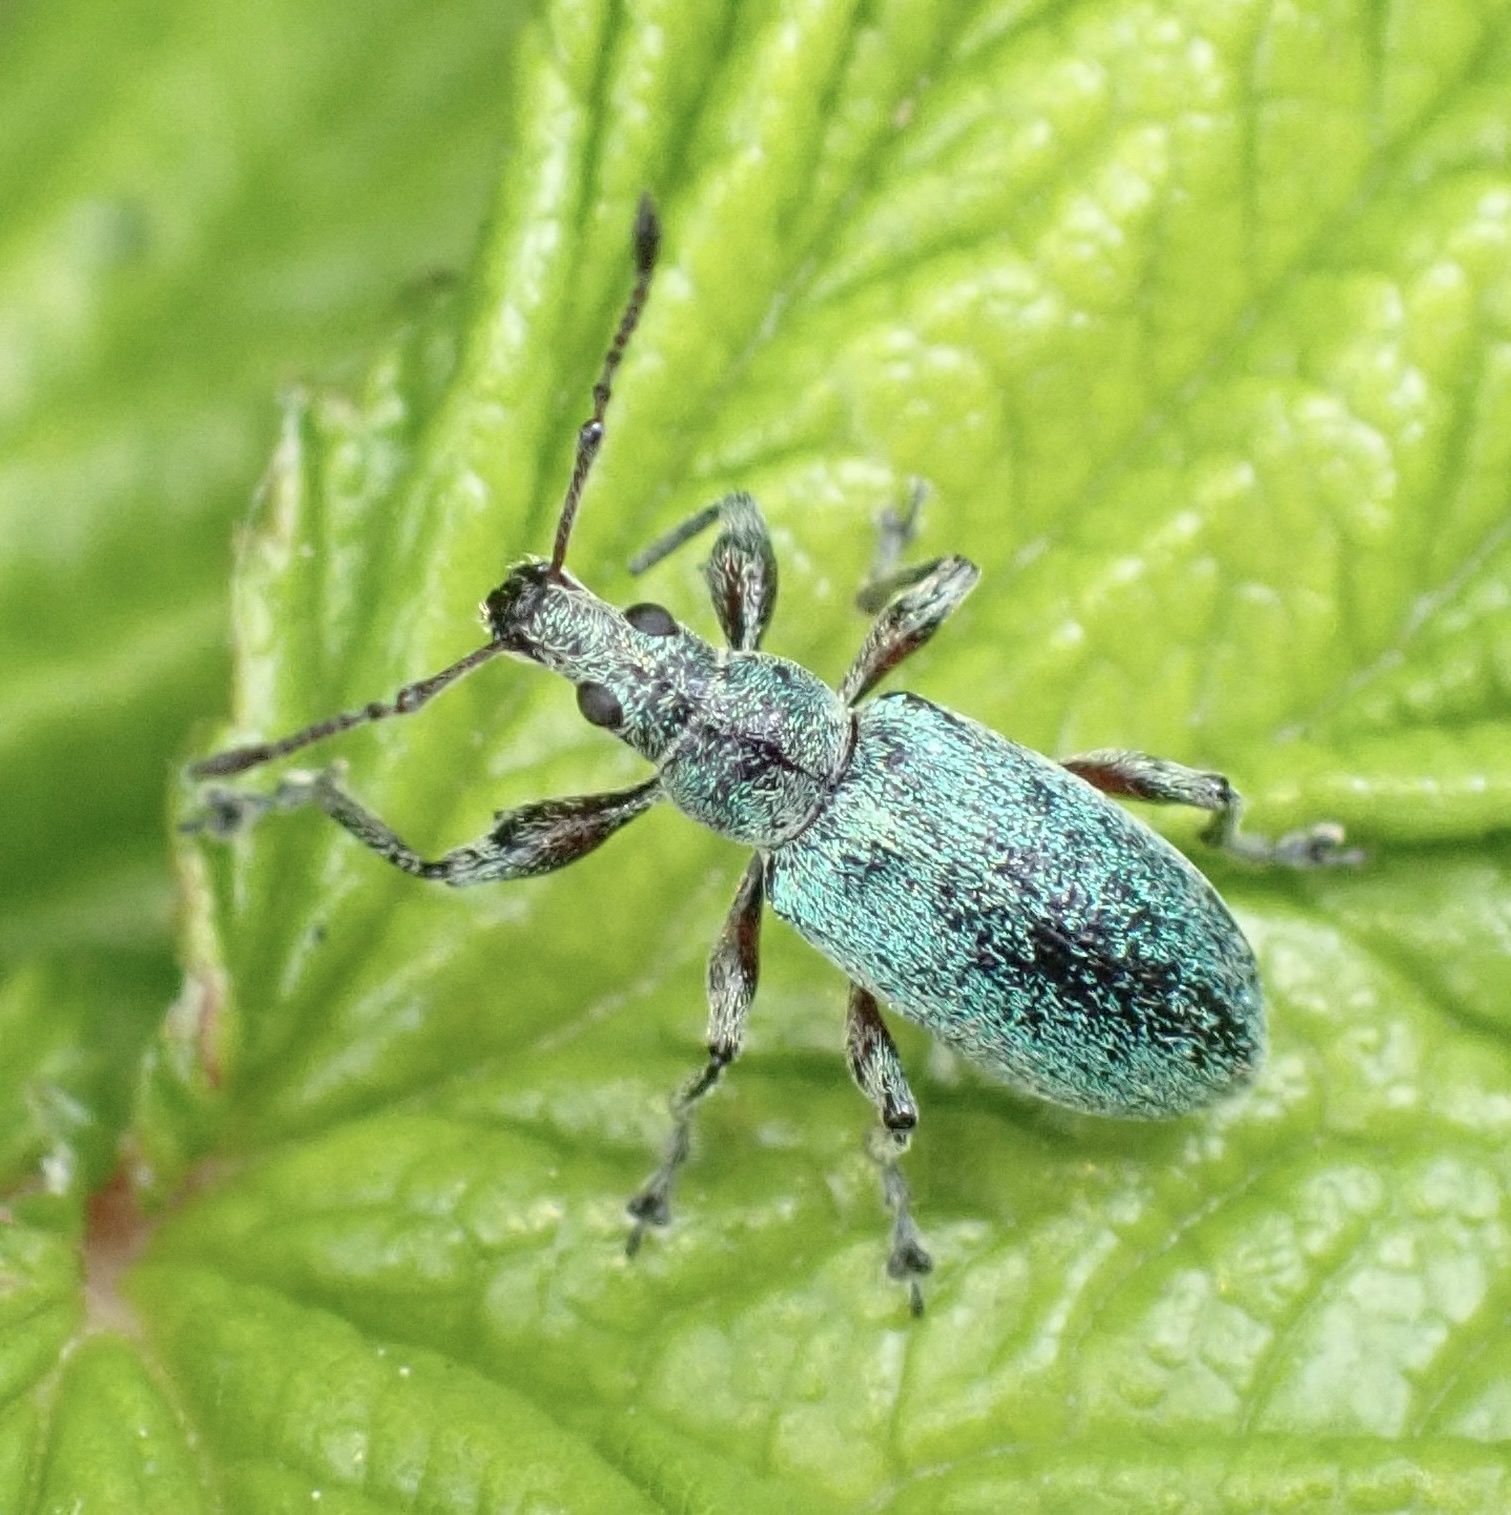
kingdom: Animalia
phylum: Arthropoda
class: Insecta
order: Coleoptera
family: Curculionidae
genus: Phyllobius
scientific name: Phyllobius pomaceus
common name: Green nettle weevil
